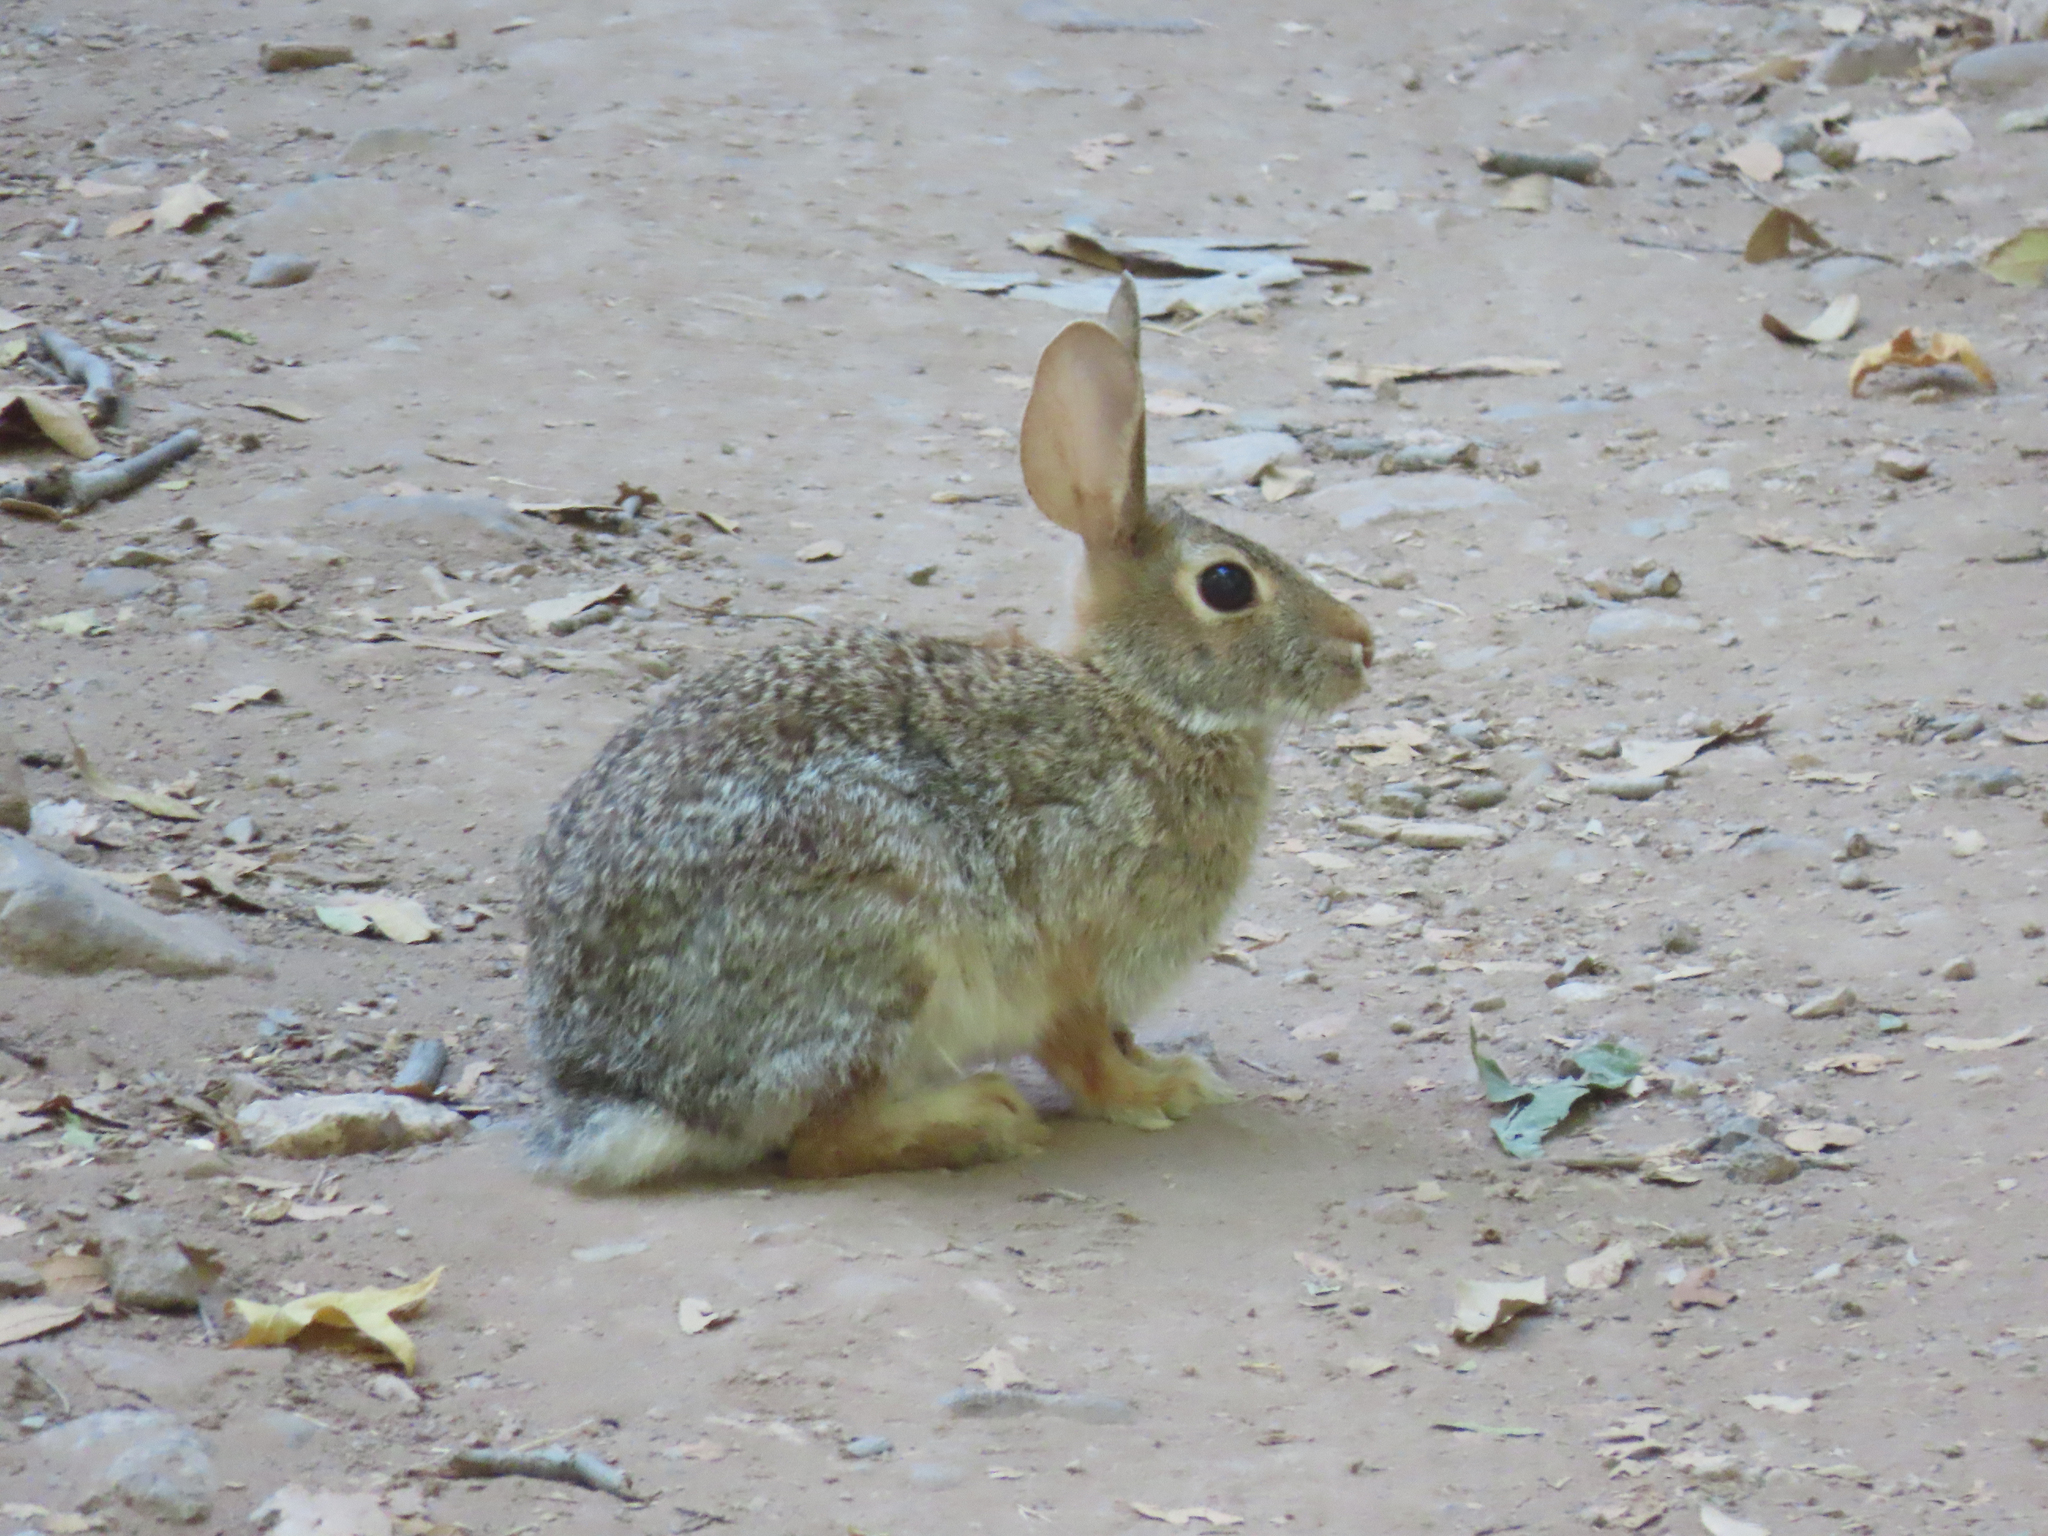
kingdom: Animalia
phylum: Chordata
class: Mammalia
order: Lagomorpha
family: Leporidae
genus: Sylvilagus
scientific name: Sylvilagus audubonii
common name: Desert cottontail
